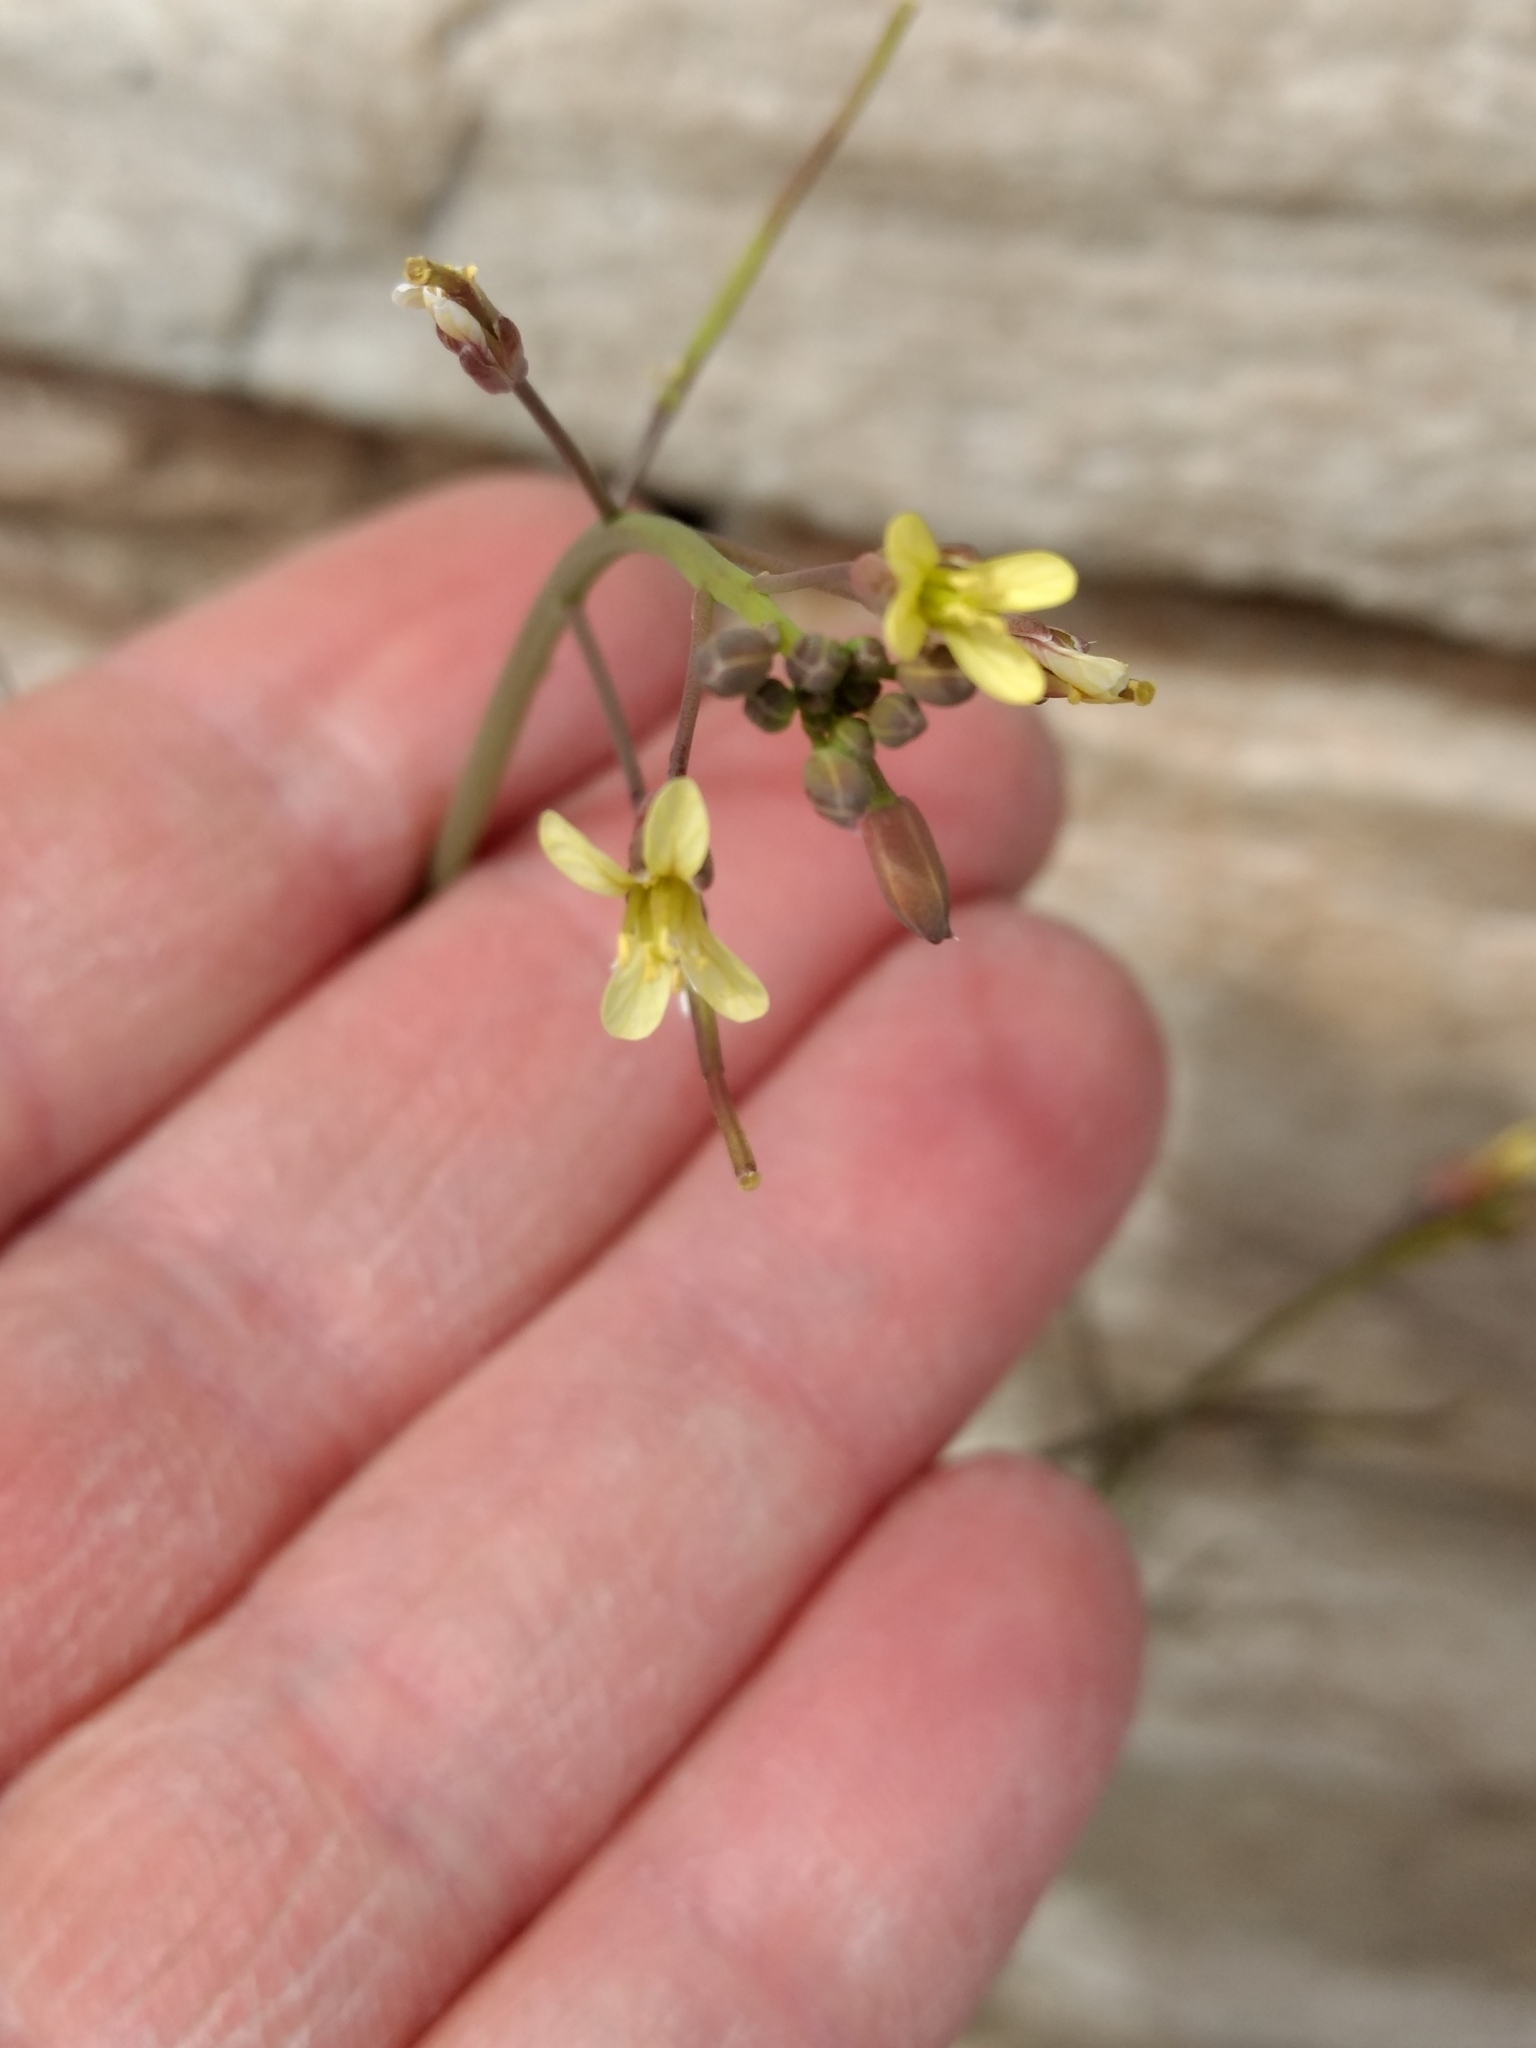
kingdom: Plantae
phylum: Tracheophyta
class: Magnoliopsida
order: Brassicales
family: Brassicaceae
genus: Brassica
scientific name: Brassica tournefortii
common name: Pale cabbage
